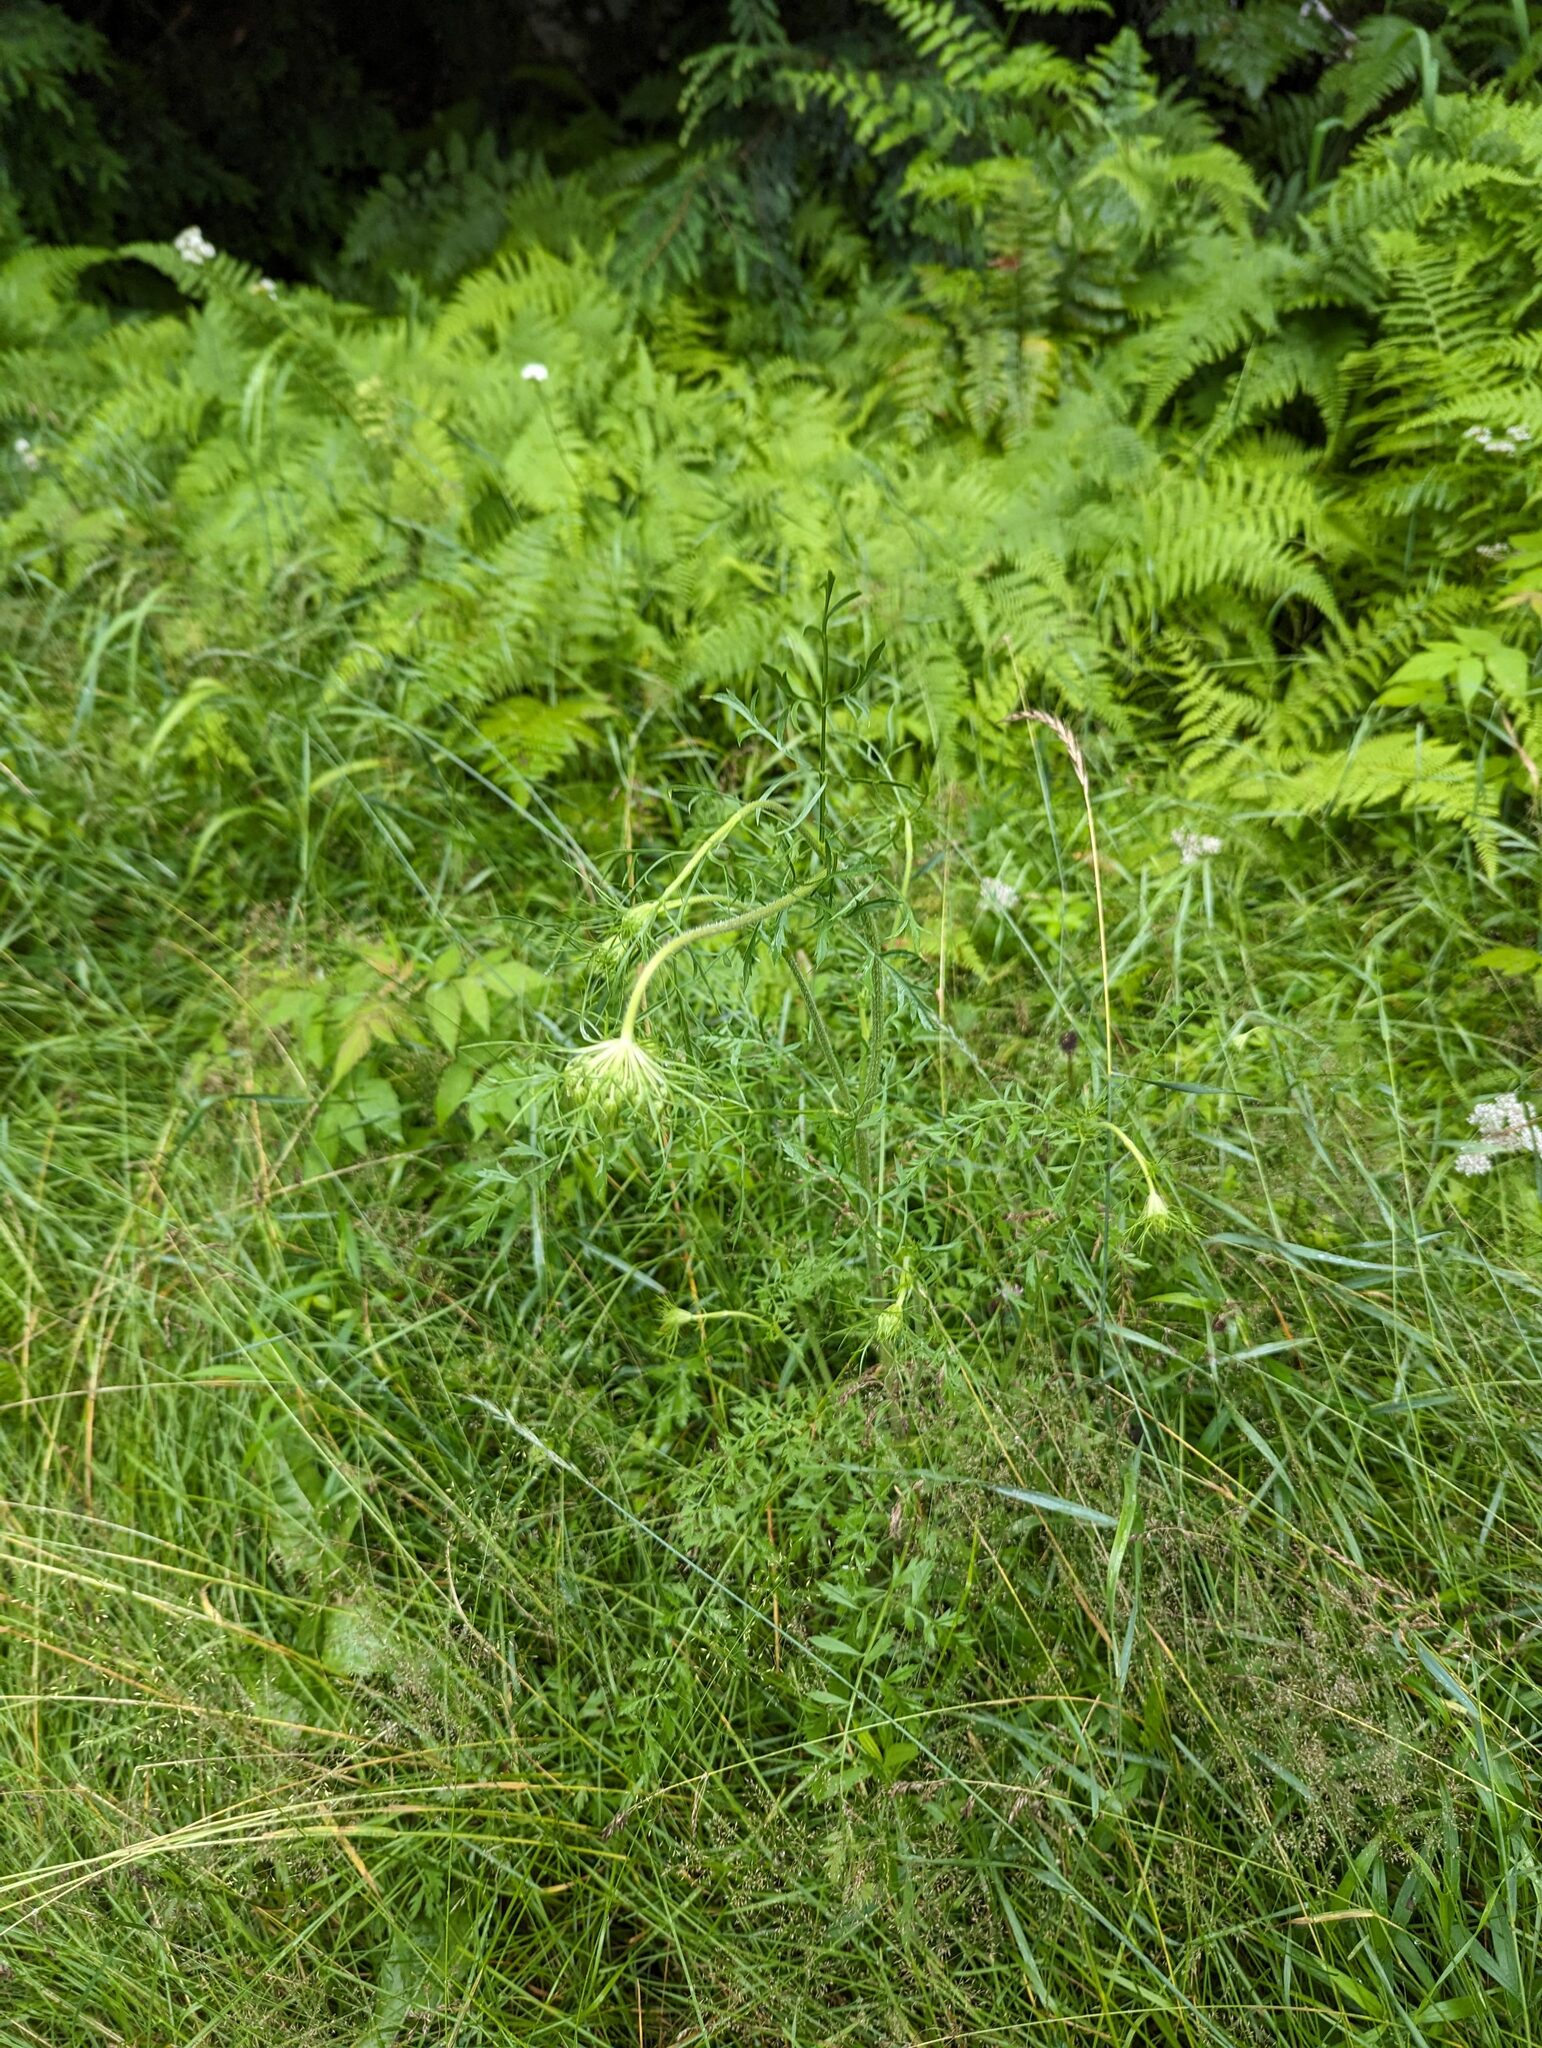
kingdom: Plantae
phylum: Tracheophyta
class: Magnoliopsida
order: Apiales
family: Apiaceae
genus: Daucus
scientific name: Daucus carota
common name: Wild carrot
